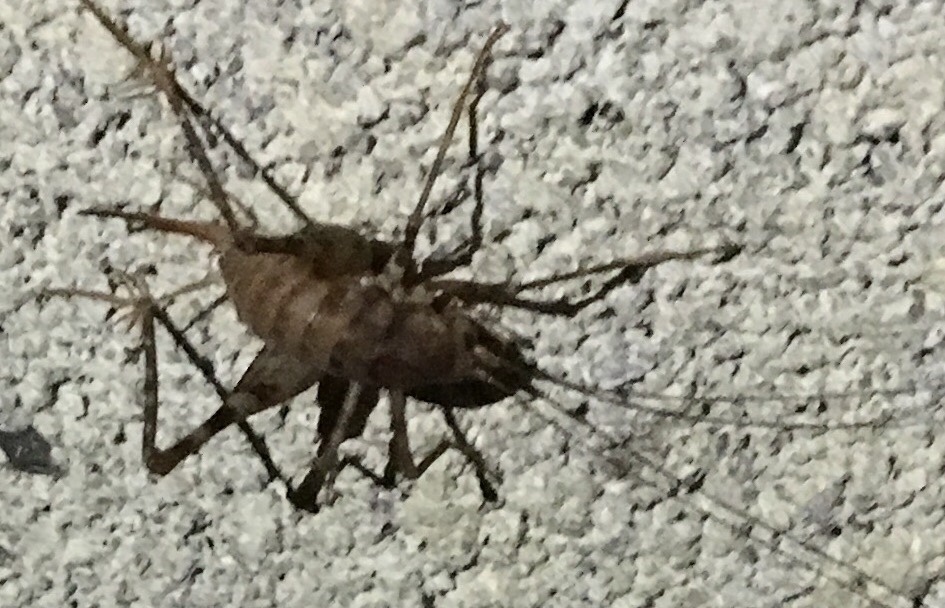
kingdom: Animalia
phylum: Arthropoda
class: Insecta
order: Orthoptera
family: Rhaphidophoridae
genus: Tachycines
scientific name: Tachycines asynamorus
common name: Greenhouse camel cricket
